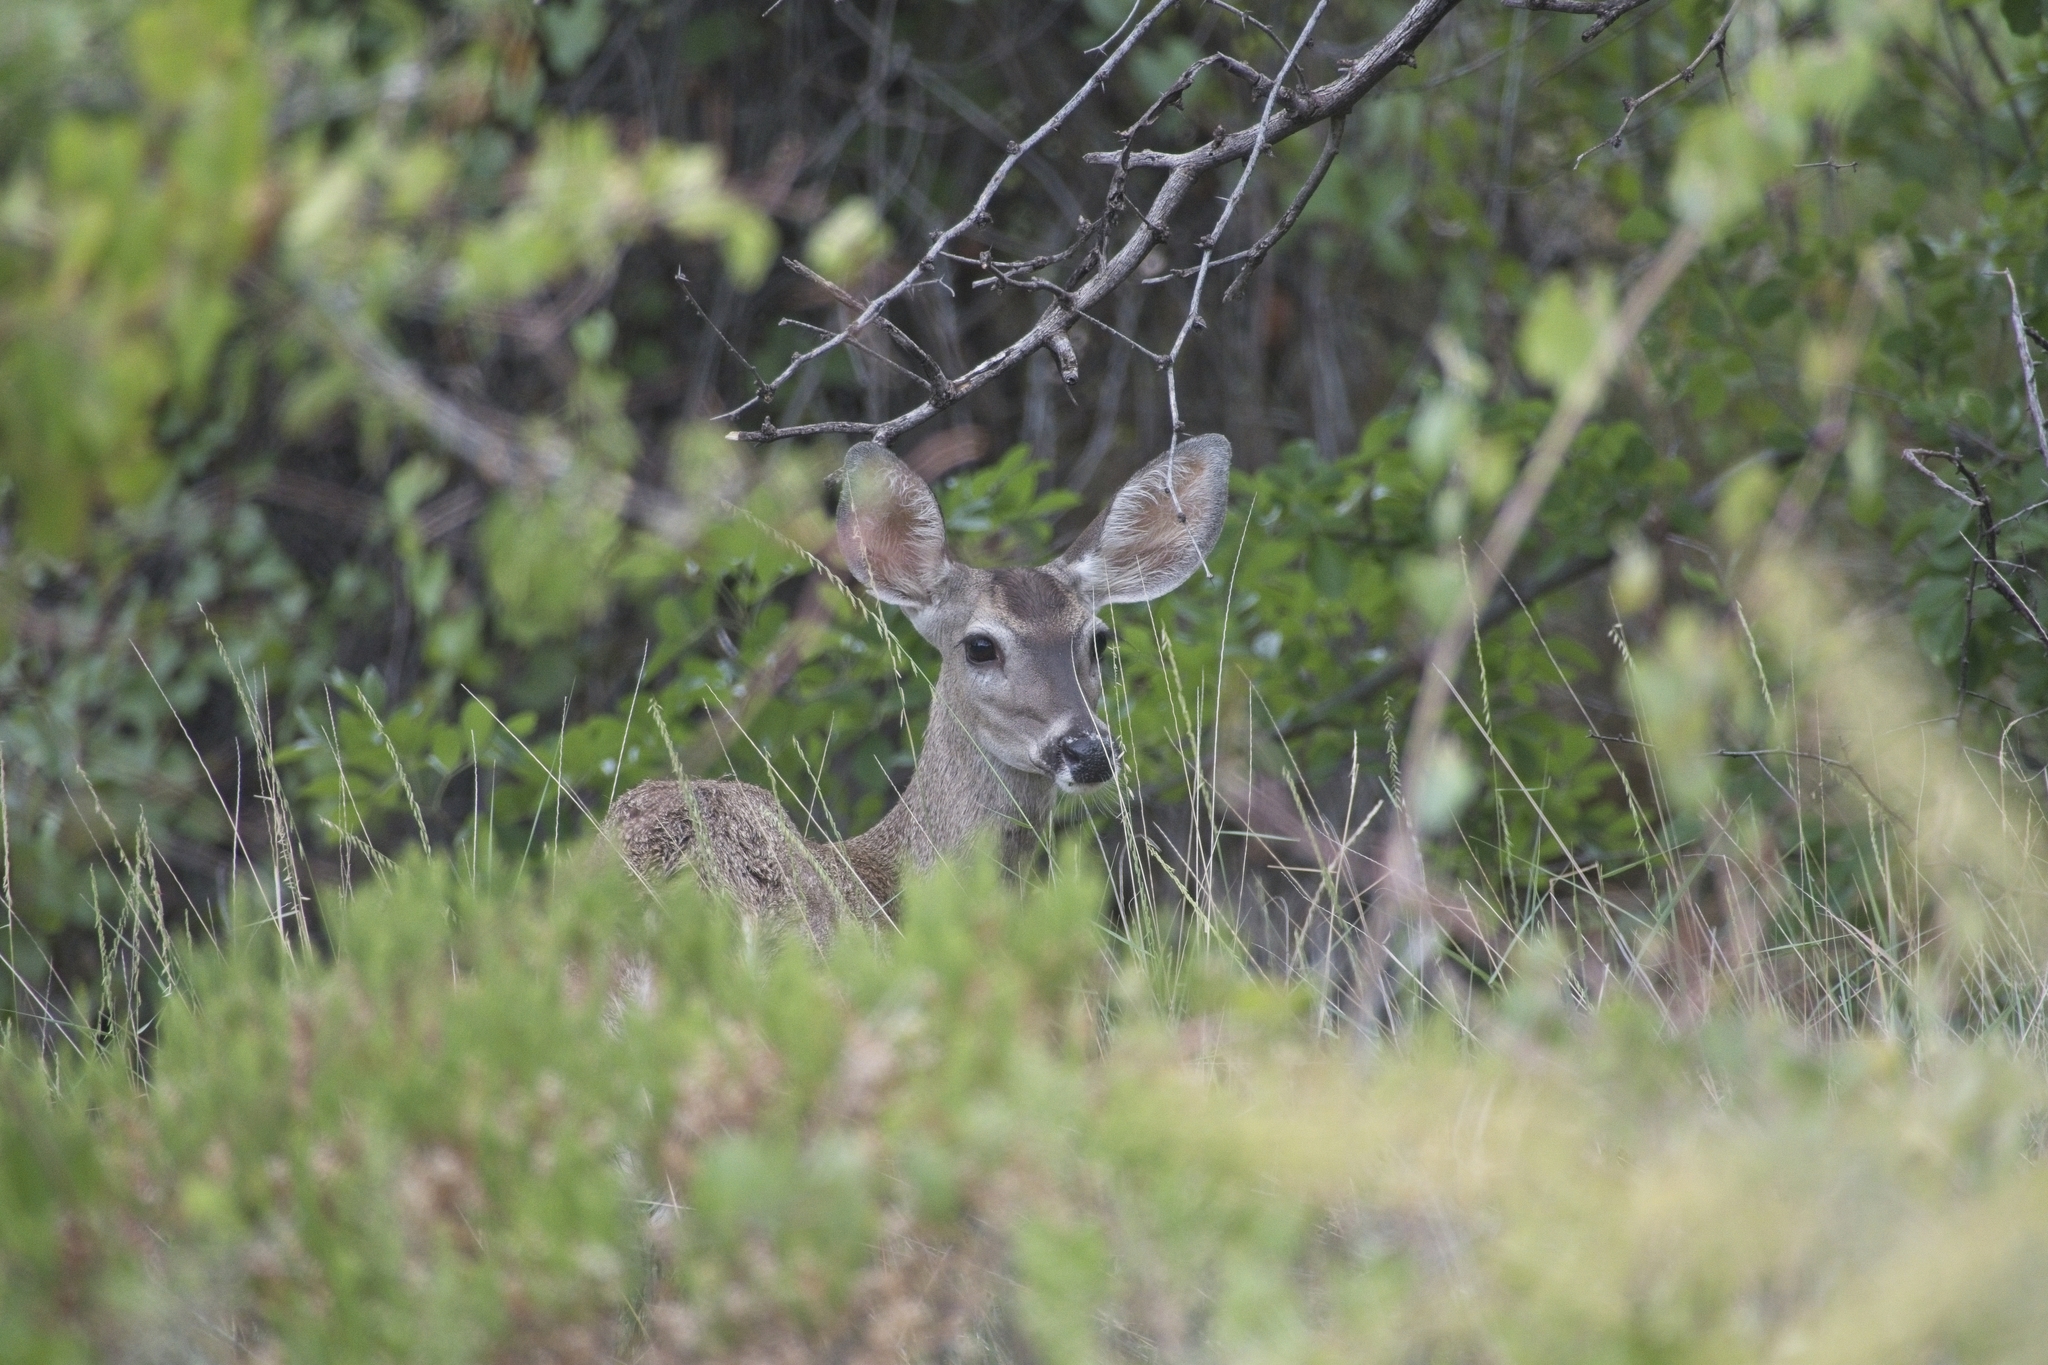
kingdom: Animalia
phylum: Chordata
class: Mammalia
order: Artiodactyla
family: Cervidae
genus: Odocoileus
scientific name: Odocoileus virginianus
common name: White-tailed deer
